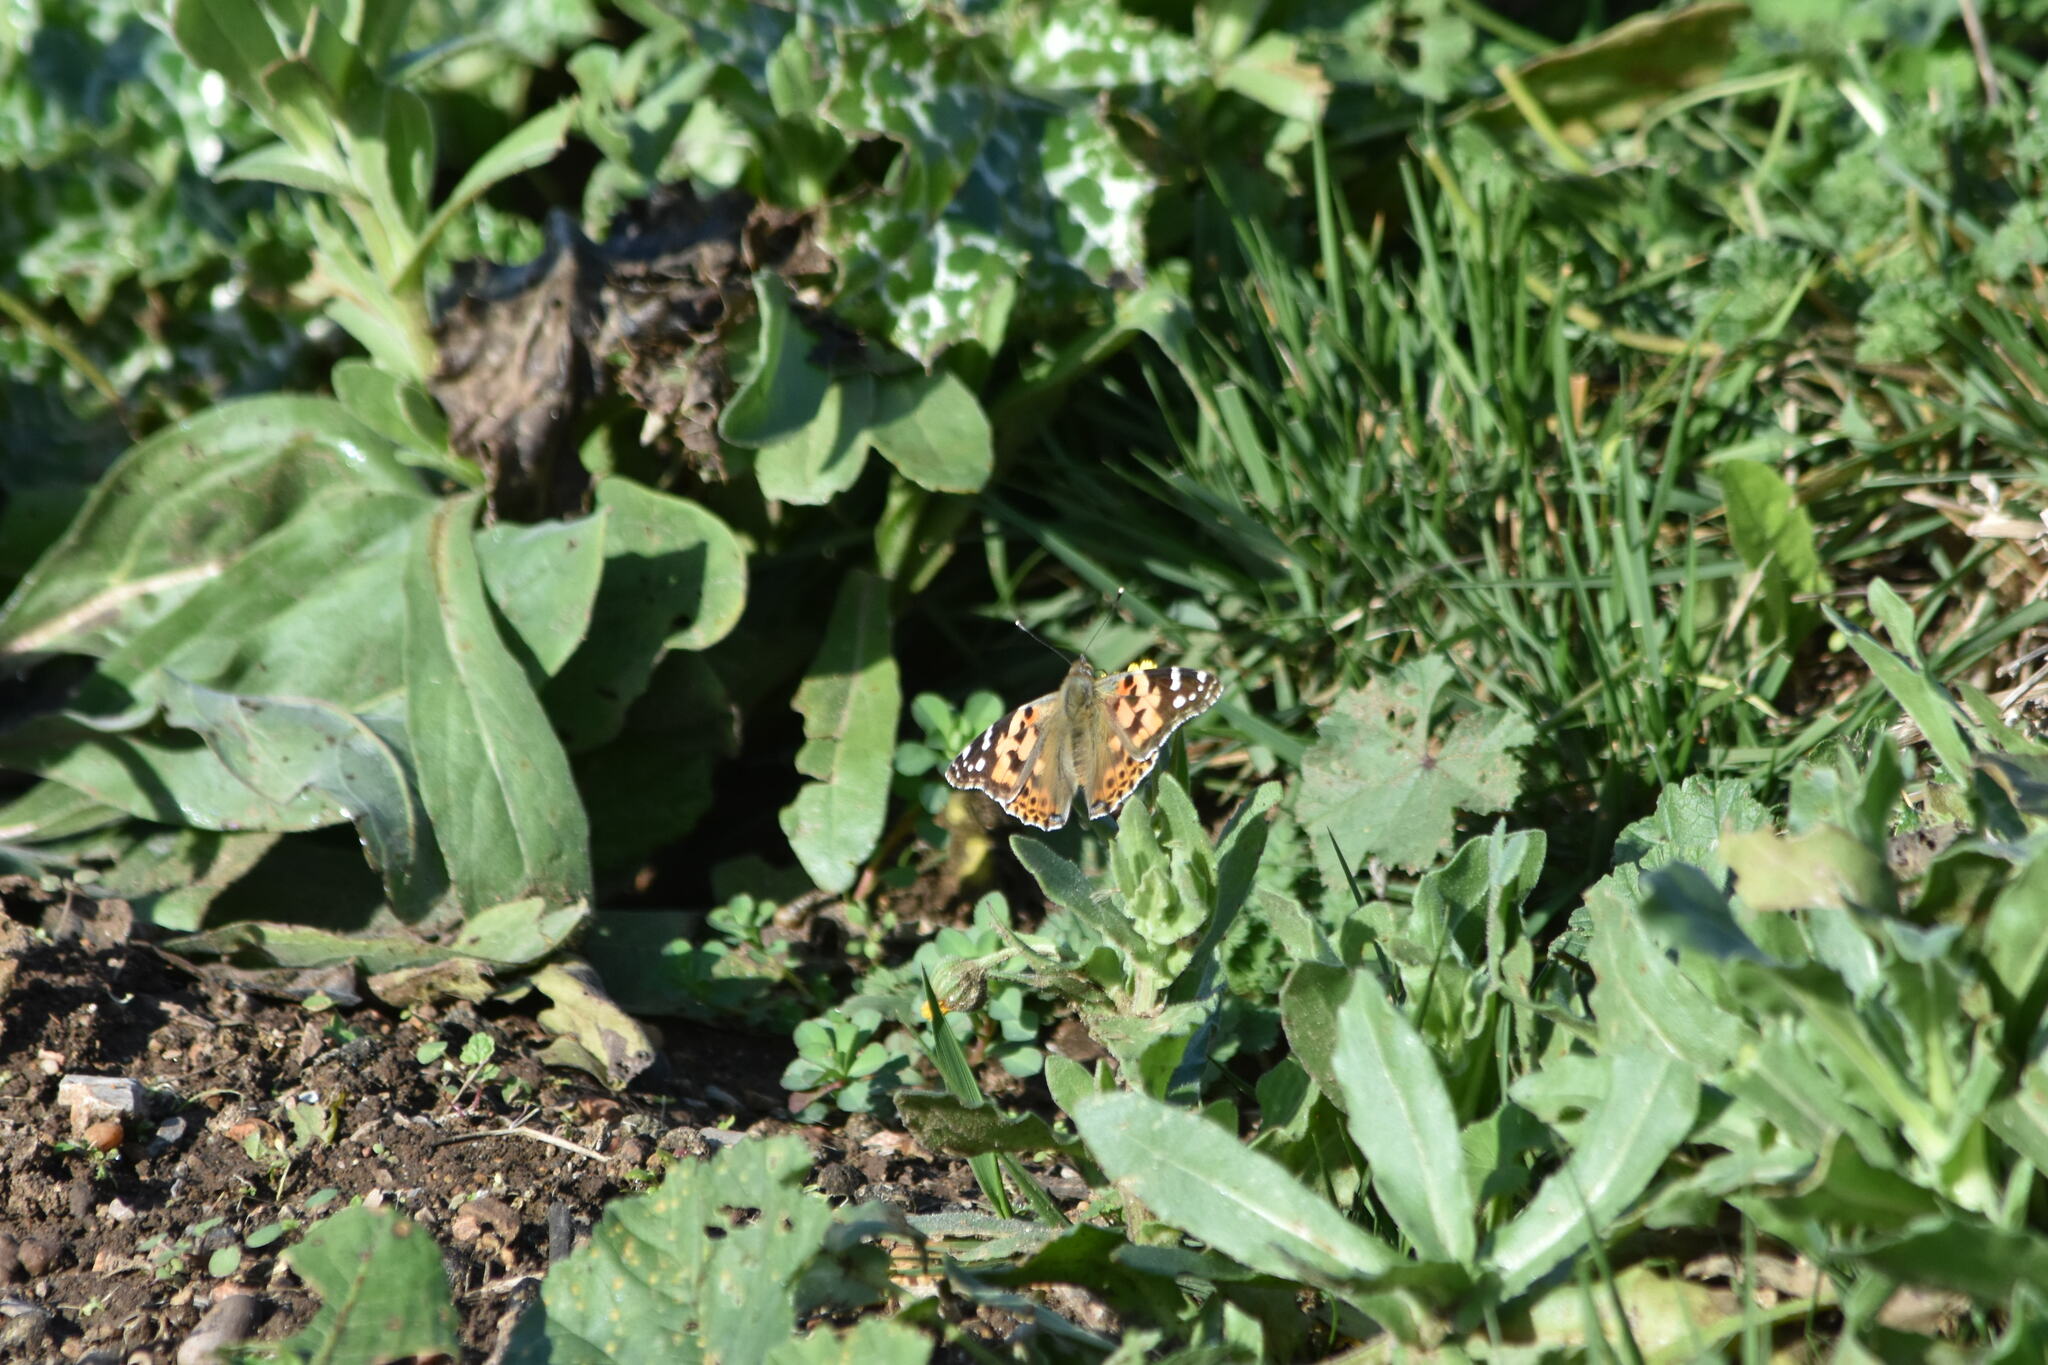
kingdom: Animalia
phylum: Arthropoda
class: Insecta
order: Lepidoptera
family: Nymphalidae
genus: Vanessa
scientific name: Vanessa cardui
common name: Painted lady
